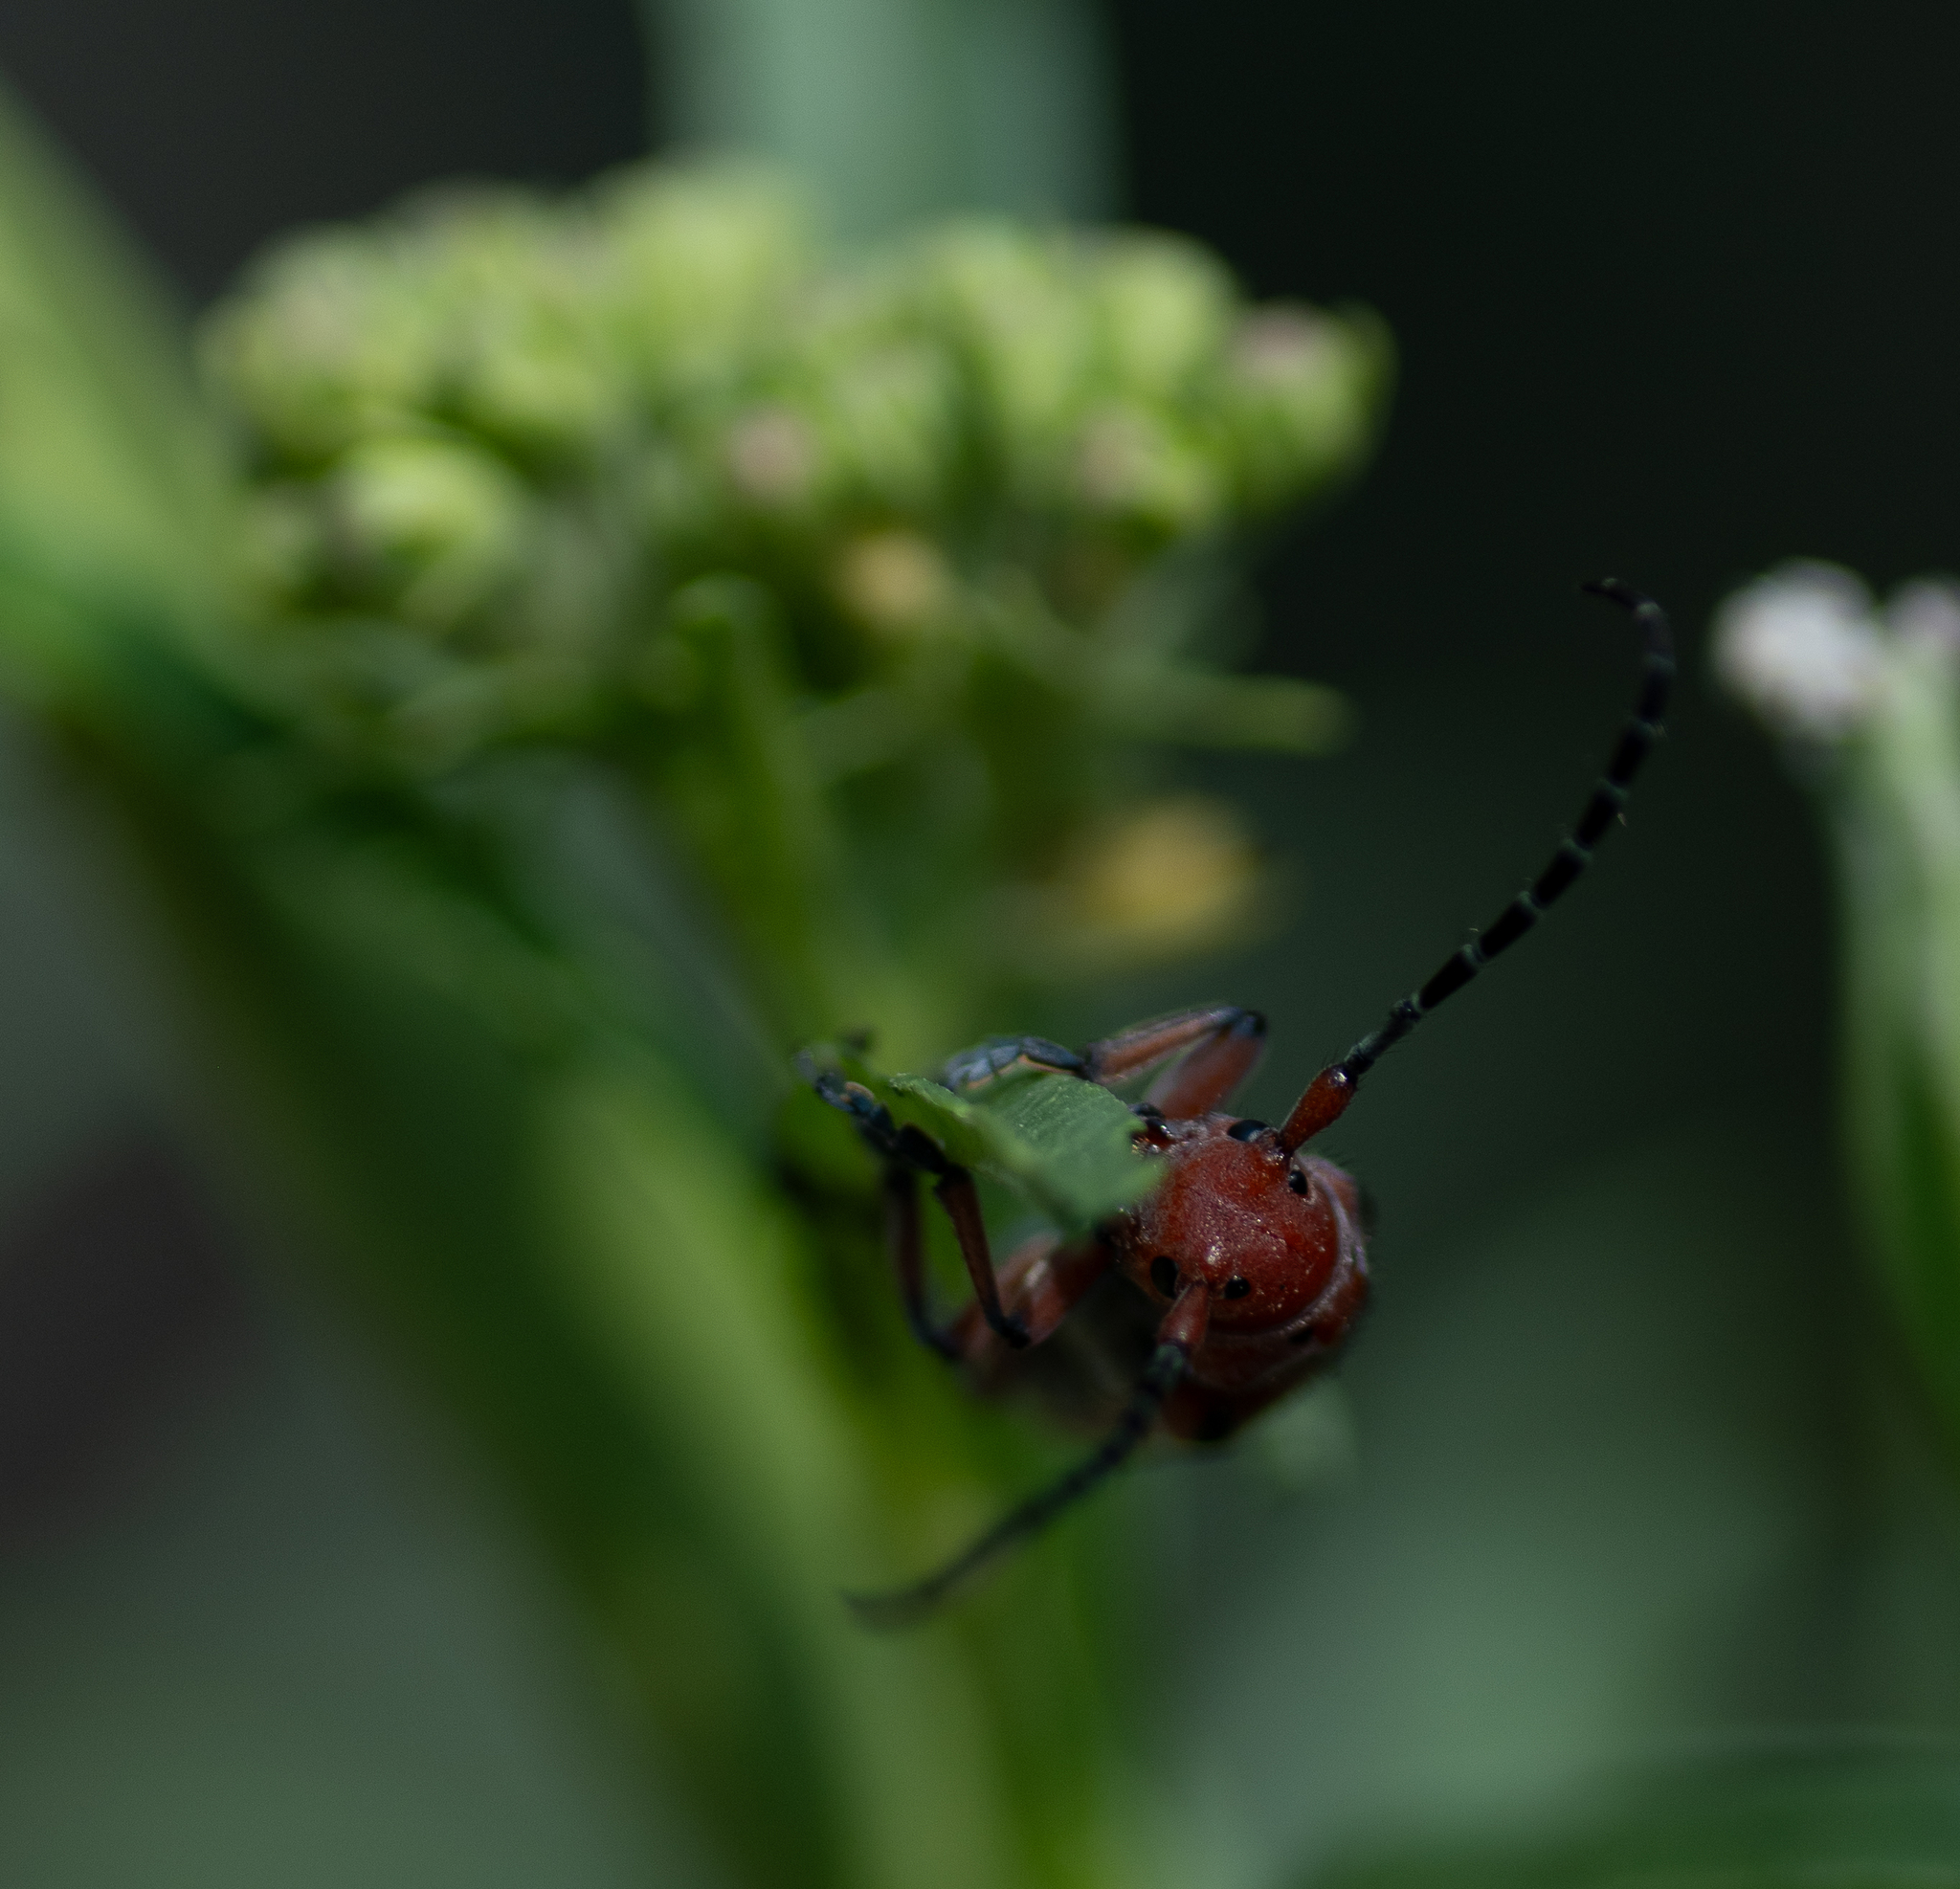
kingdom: Animalia
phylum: Arthropoda
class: Insecta
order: Coleoptera
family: Cerambycidae
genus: Tetraopes
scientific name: Tetraopes femoratus
